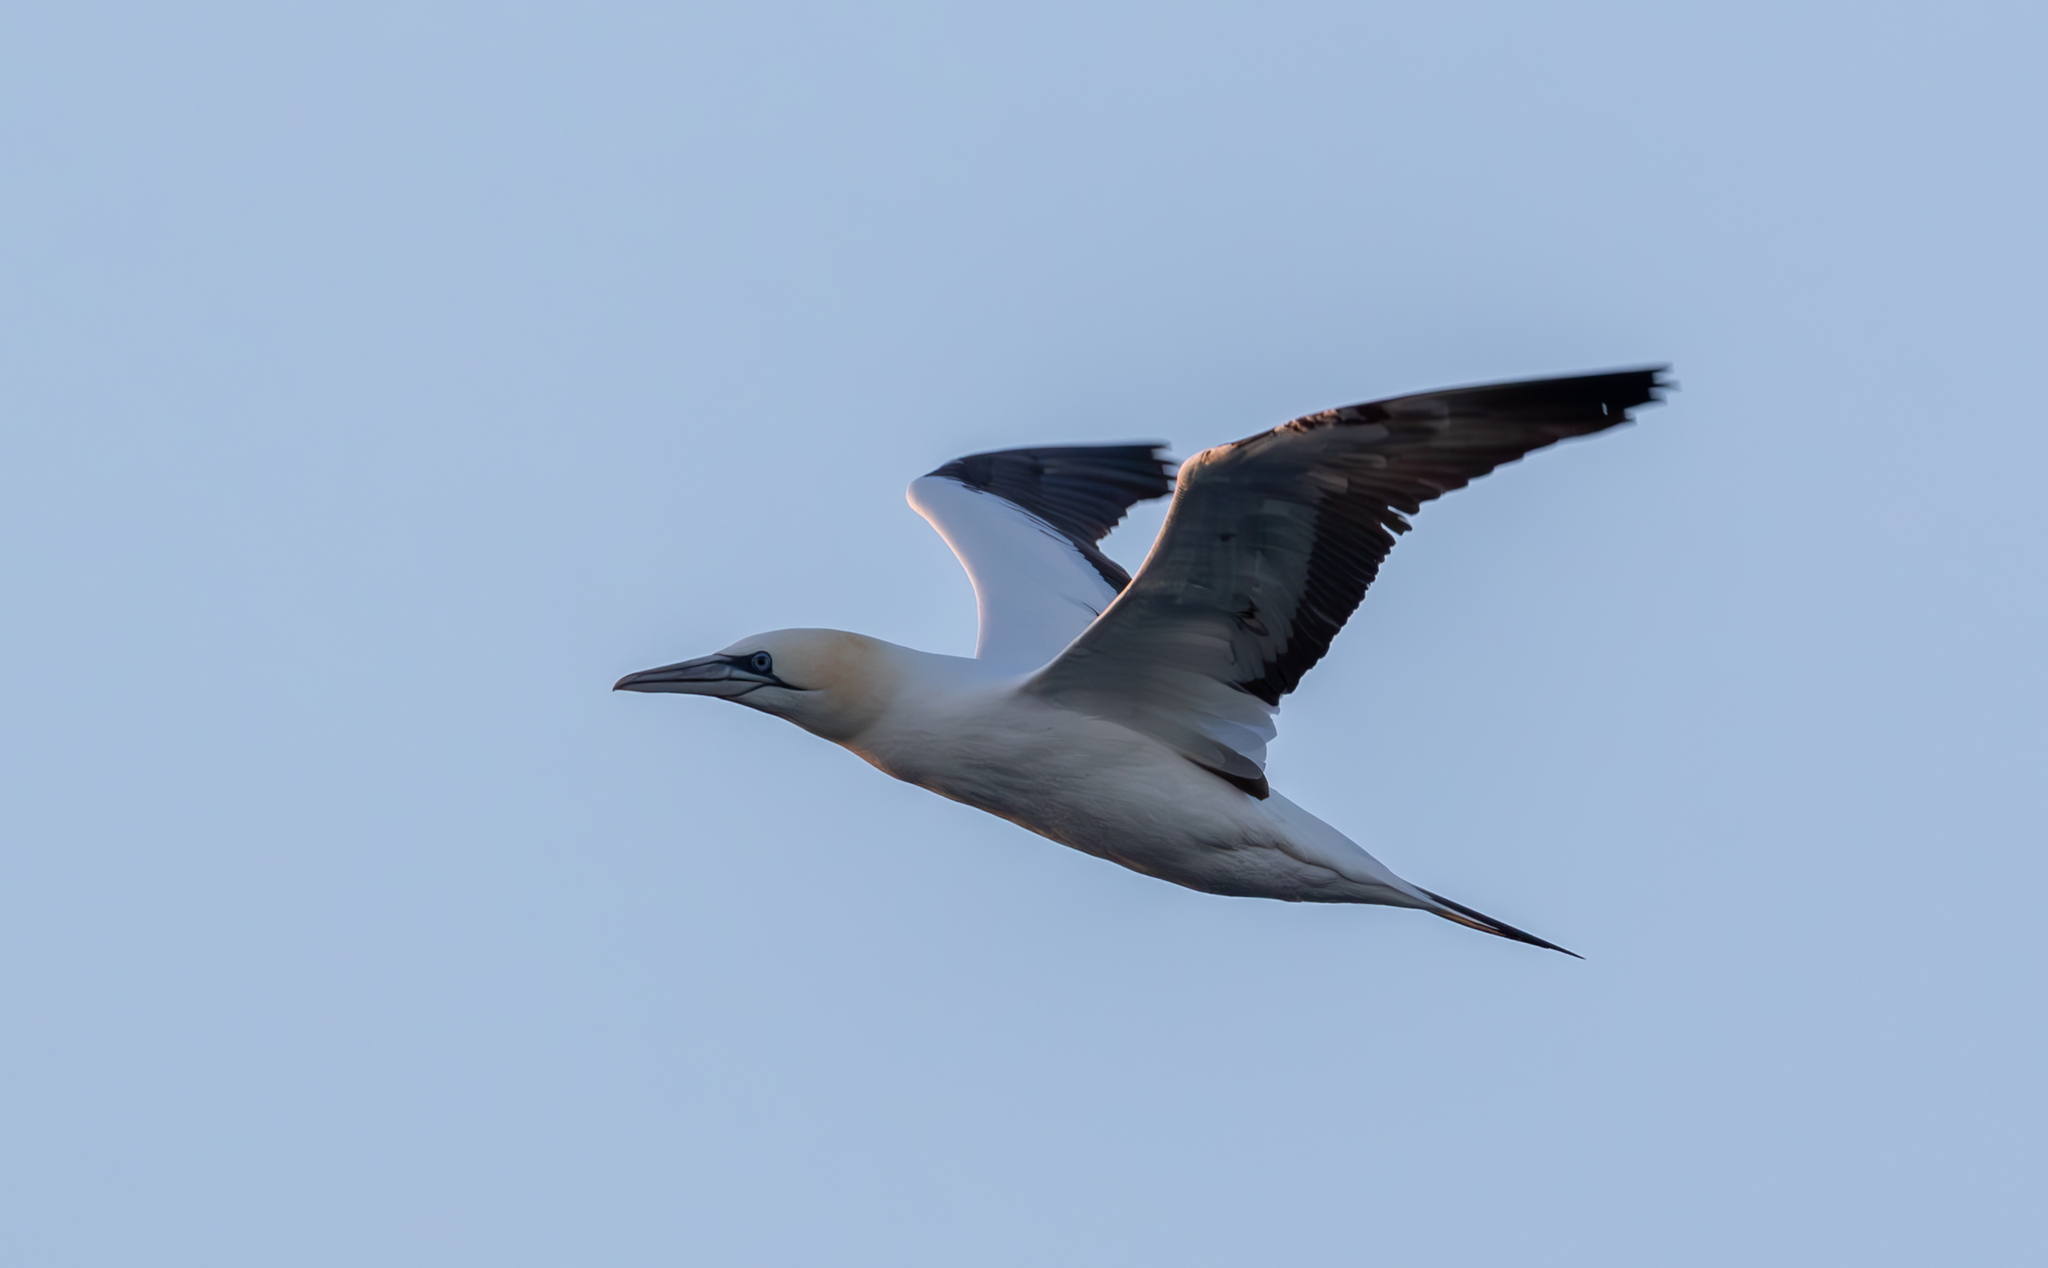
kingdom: Animalia
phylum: Chordata
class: Aves
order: Suliformes
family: Sulidae
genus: Morus
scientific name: Morus bassanus
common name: Northern gannet
